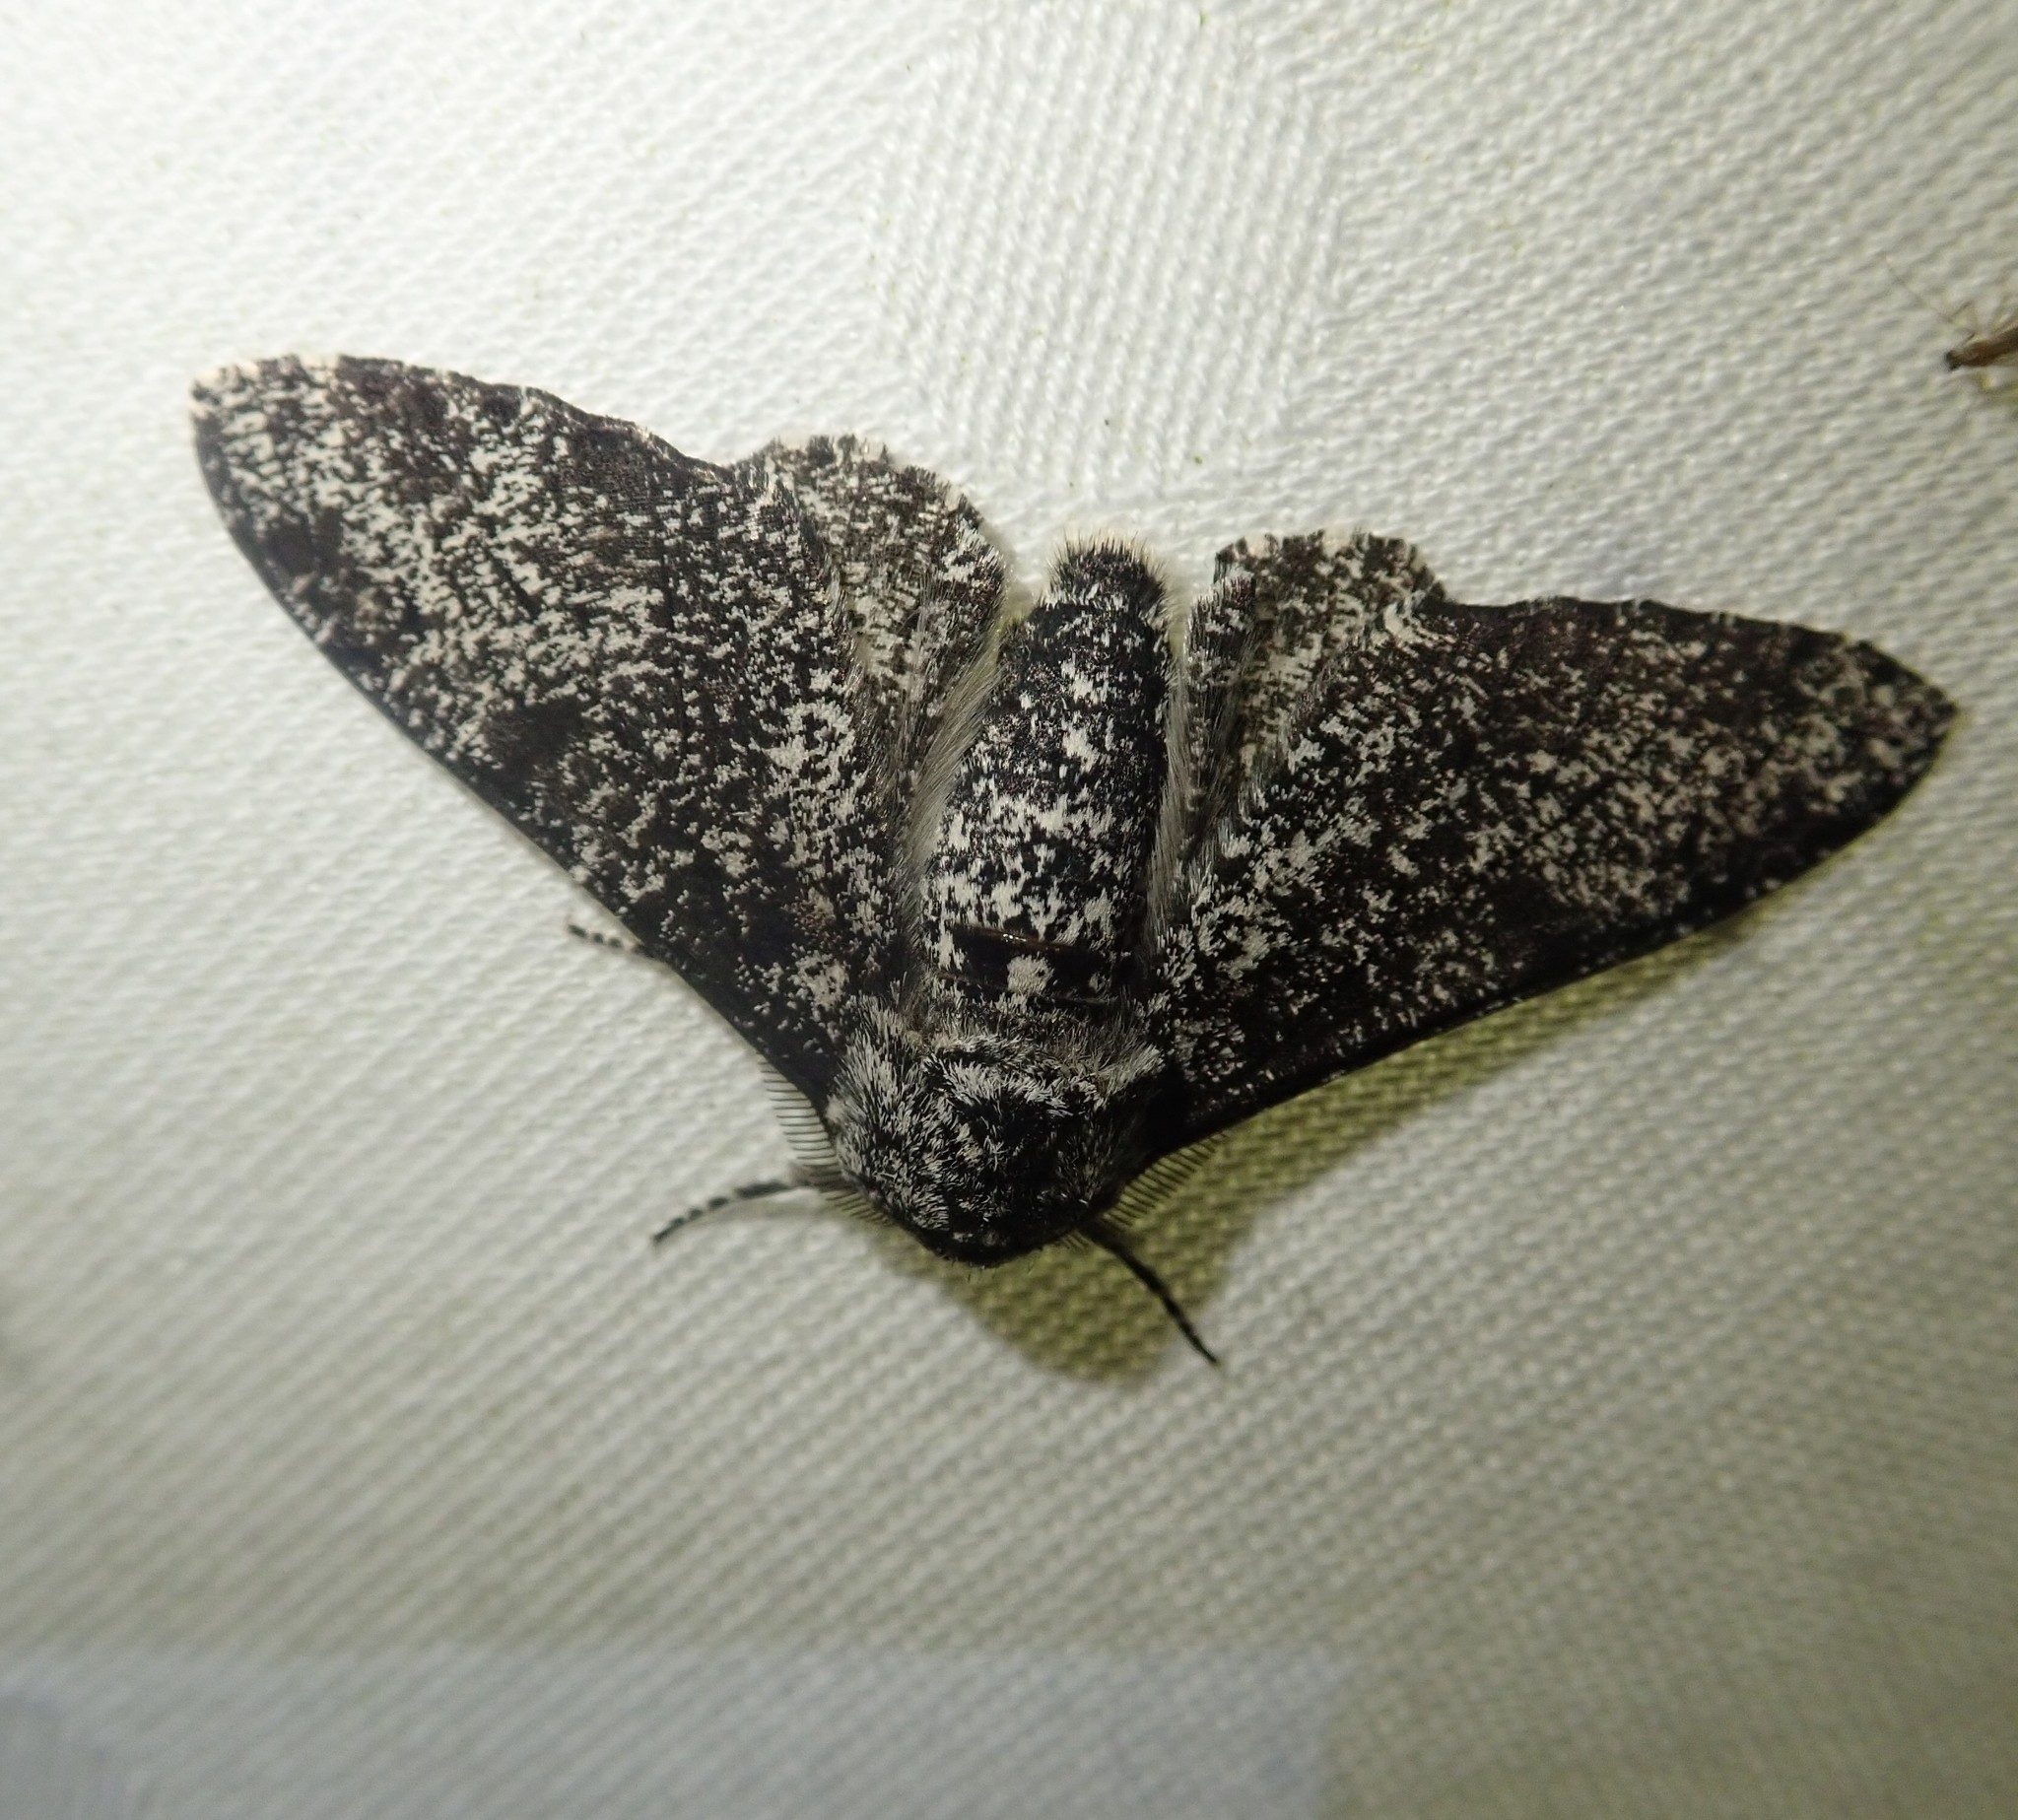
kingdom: Animalia
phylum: Arthropoda
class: Insecta
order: Lepidoptera
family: Geometridae
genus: Biston
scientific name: Biston betularia
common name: Peppered moth
